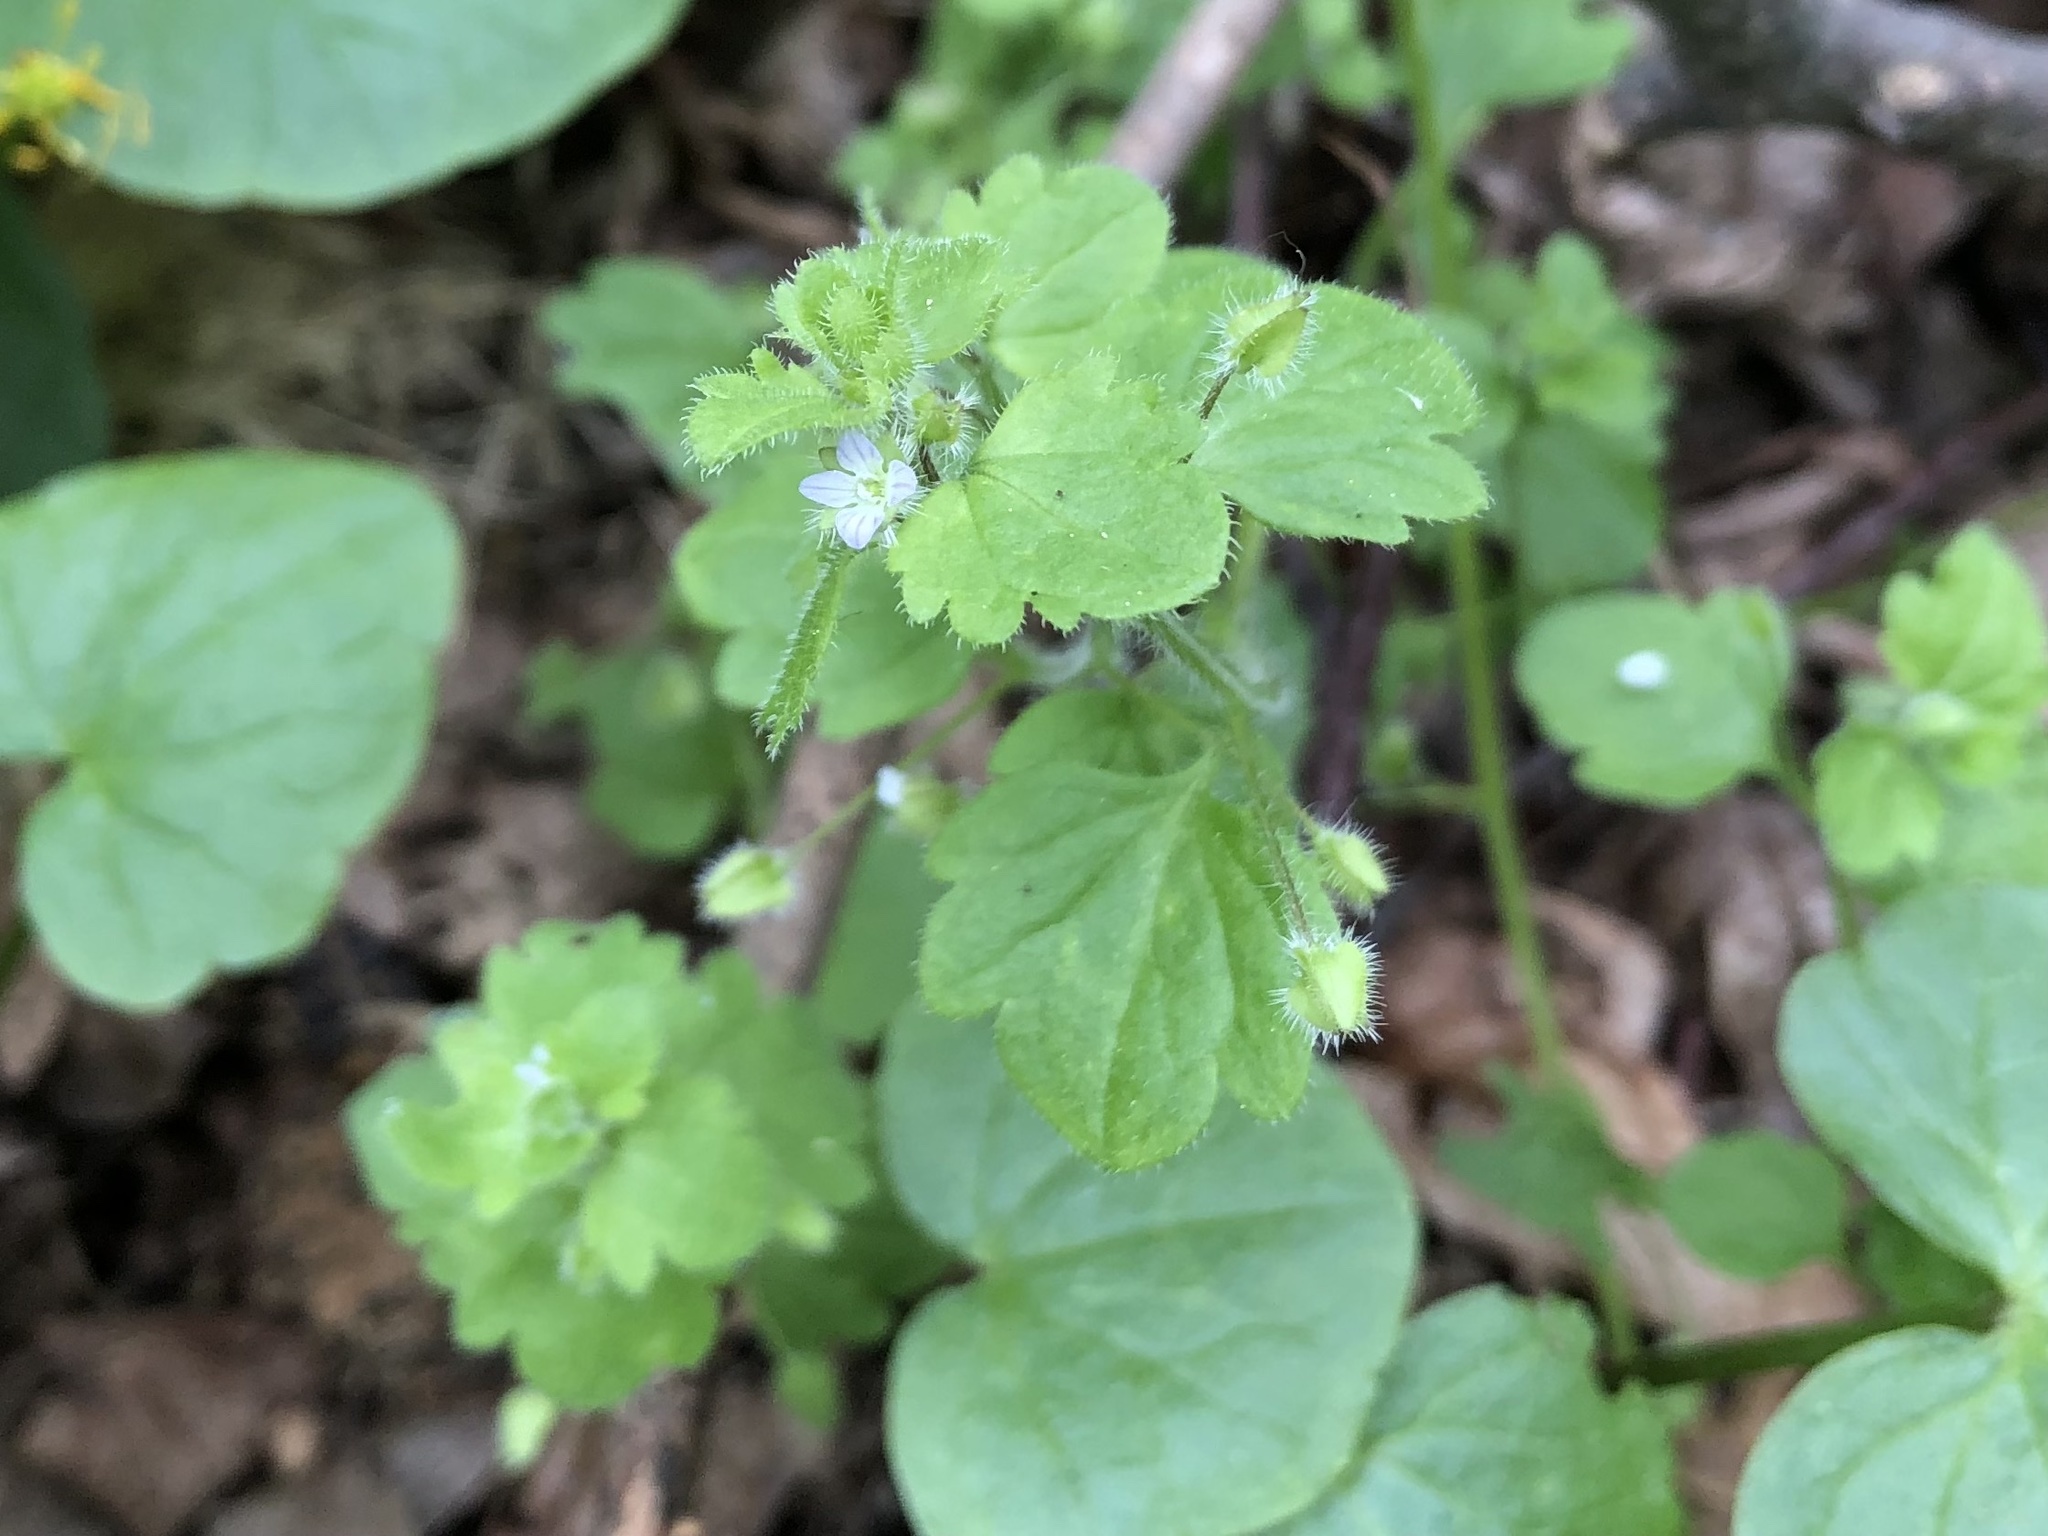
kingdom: Plantae
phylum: Tracheophyta
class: Magnoliopsida
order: Lamiales
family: Plantaginaceae
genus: Veronica
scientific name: Veronica sublobata
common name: False ivy-leaved speedwell
